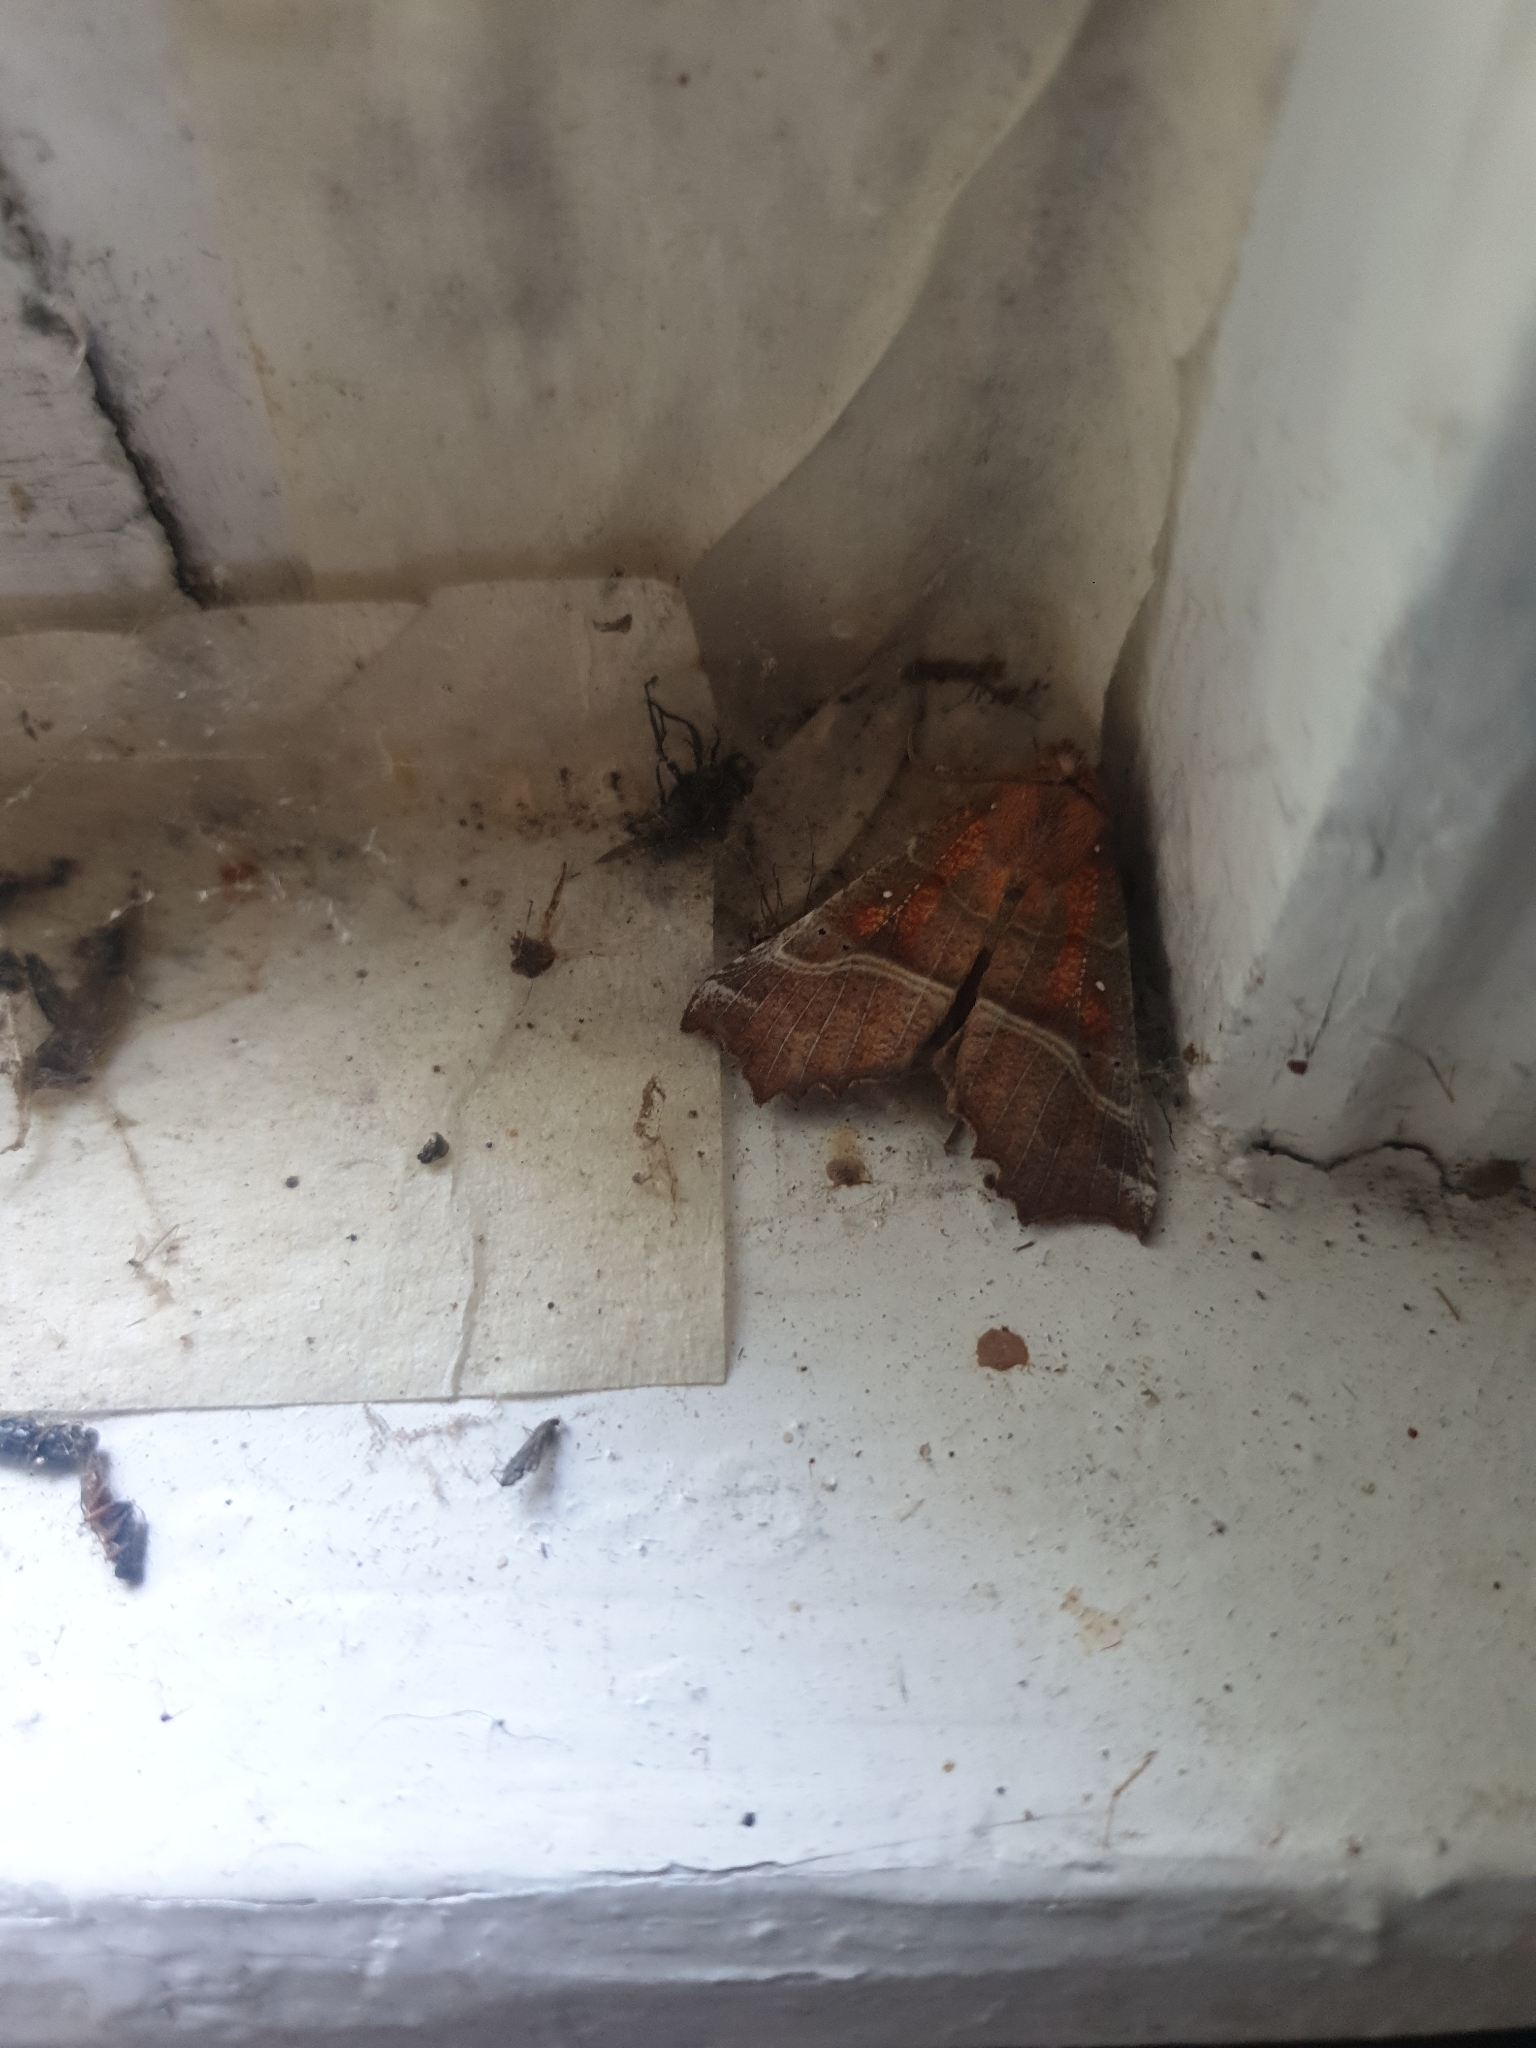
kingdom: Animalia
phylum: Arthropoda
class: Insecta
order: Lepidoptera
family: Erebidae
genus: Scoliopteryx
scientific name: Scoliopteryx libatrix
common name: Herald
